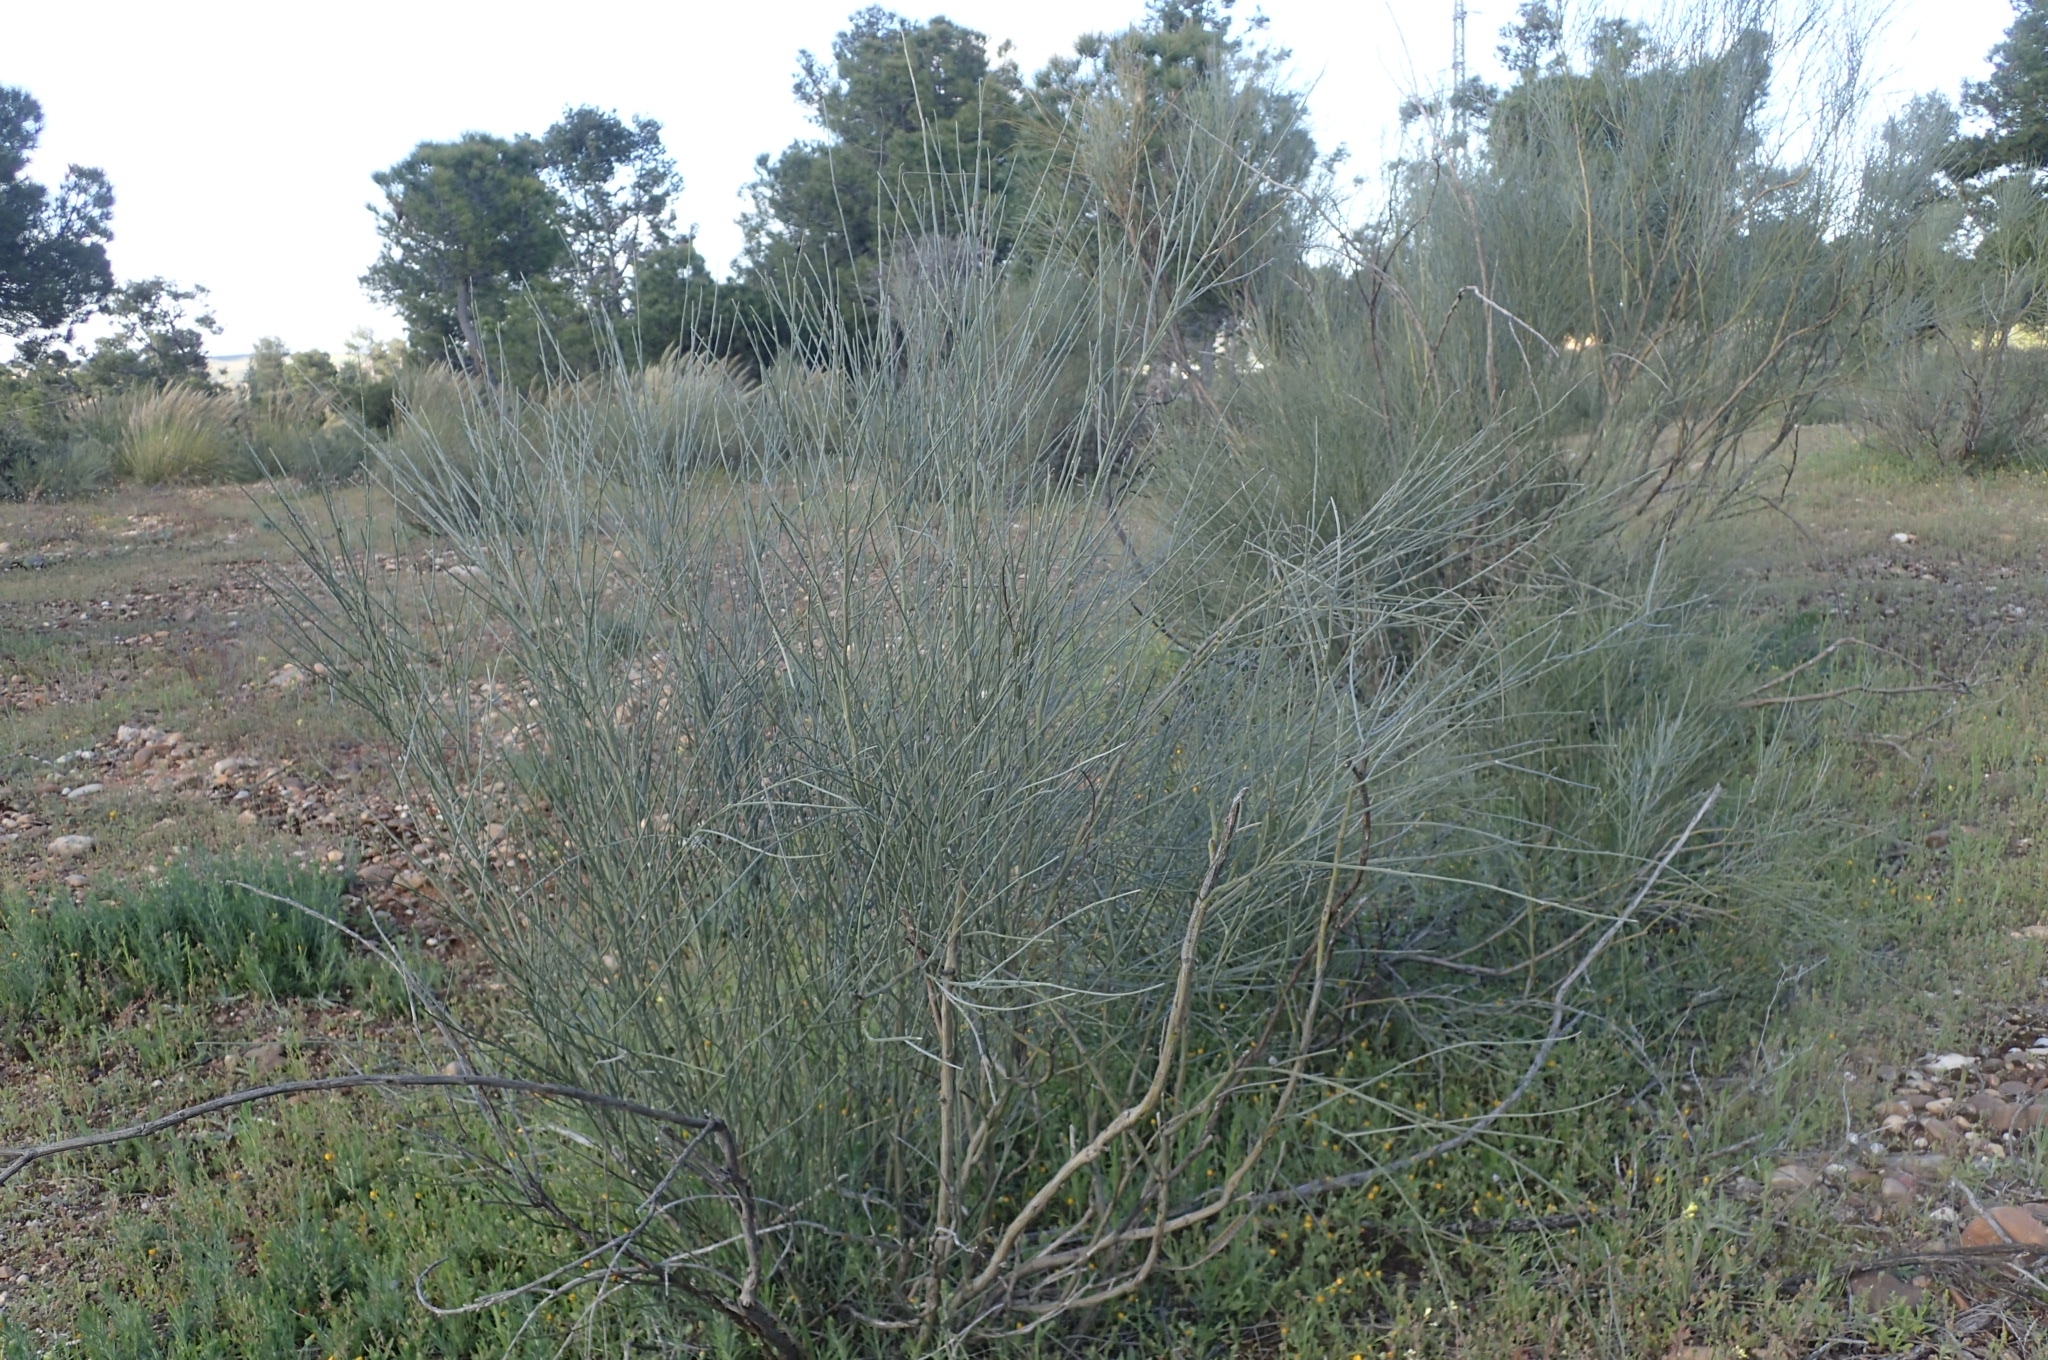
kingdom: Plantae
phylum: Tracheophyta
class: Magnoliopsida
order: Fabales
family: Fabaceae
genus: Retama
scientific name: Retama sphaerocarpa
